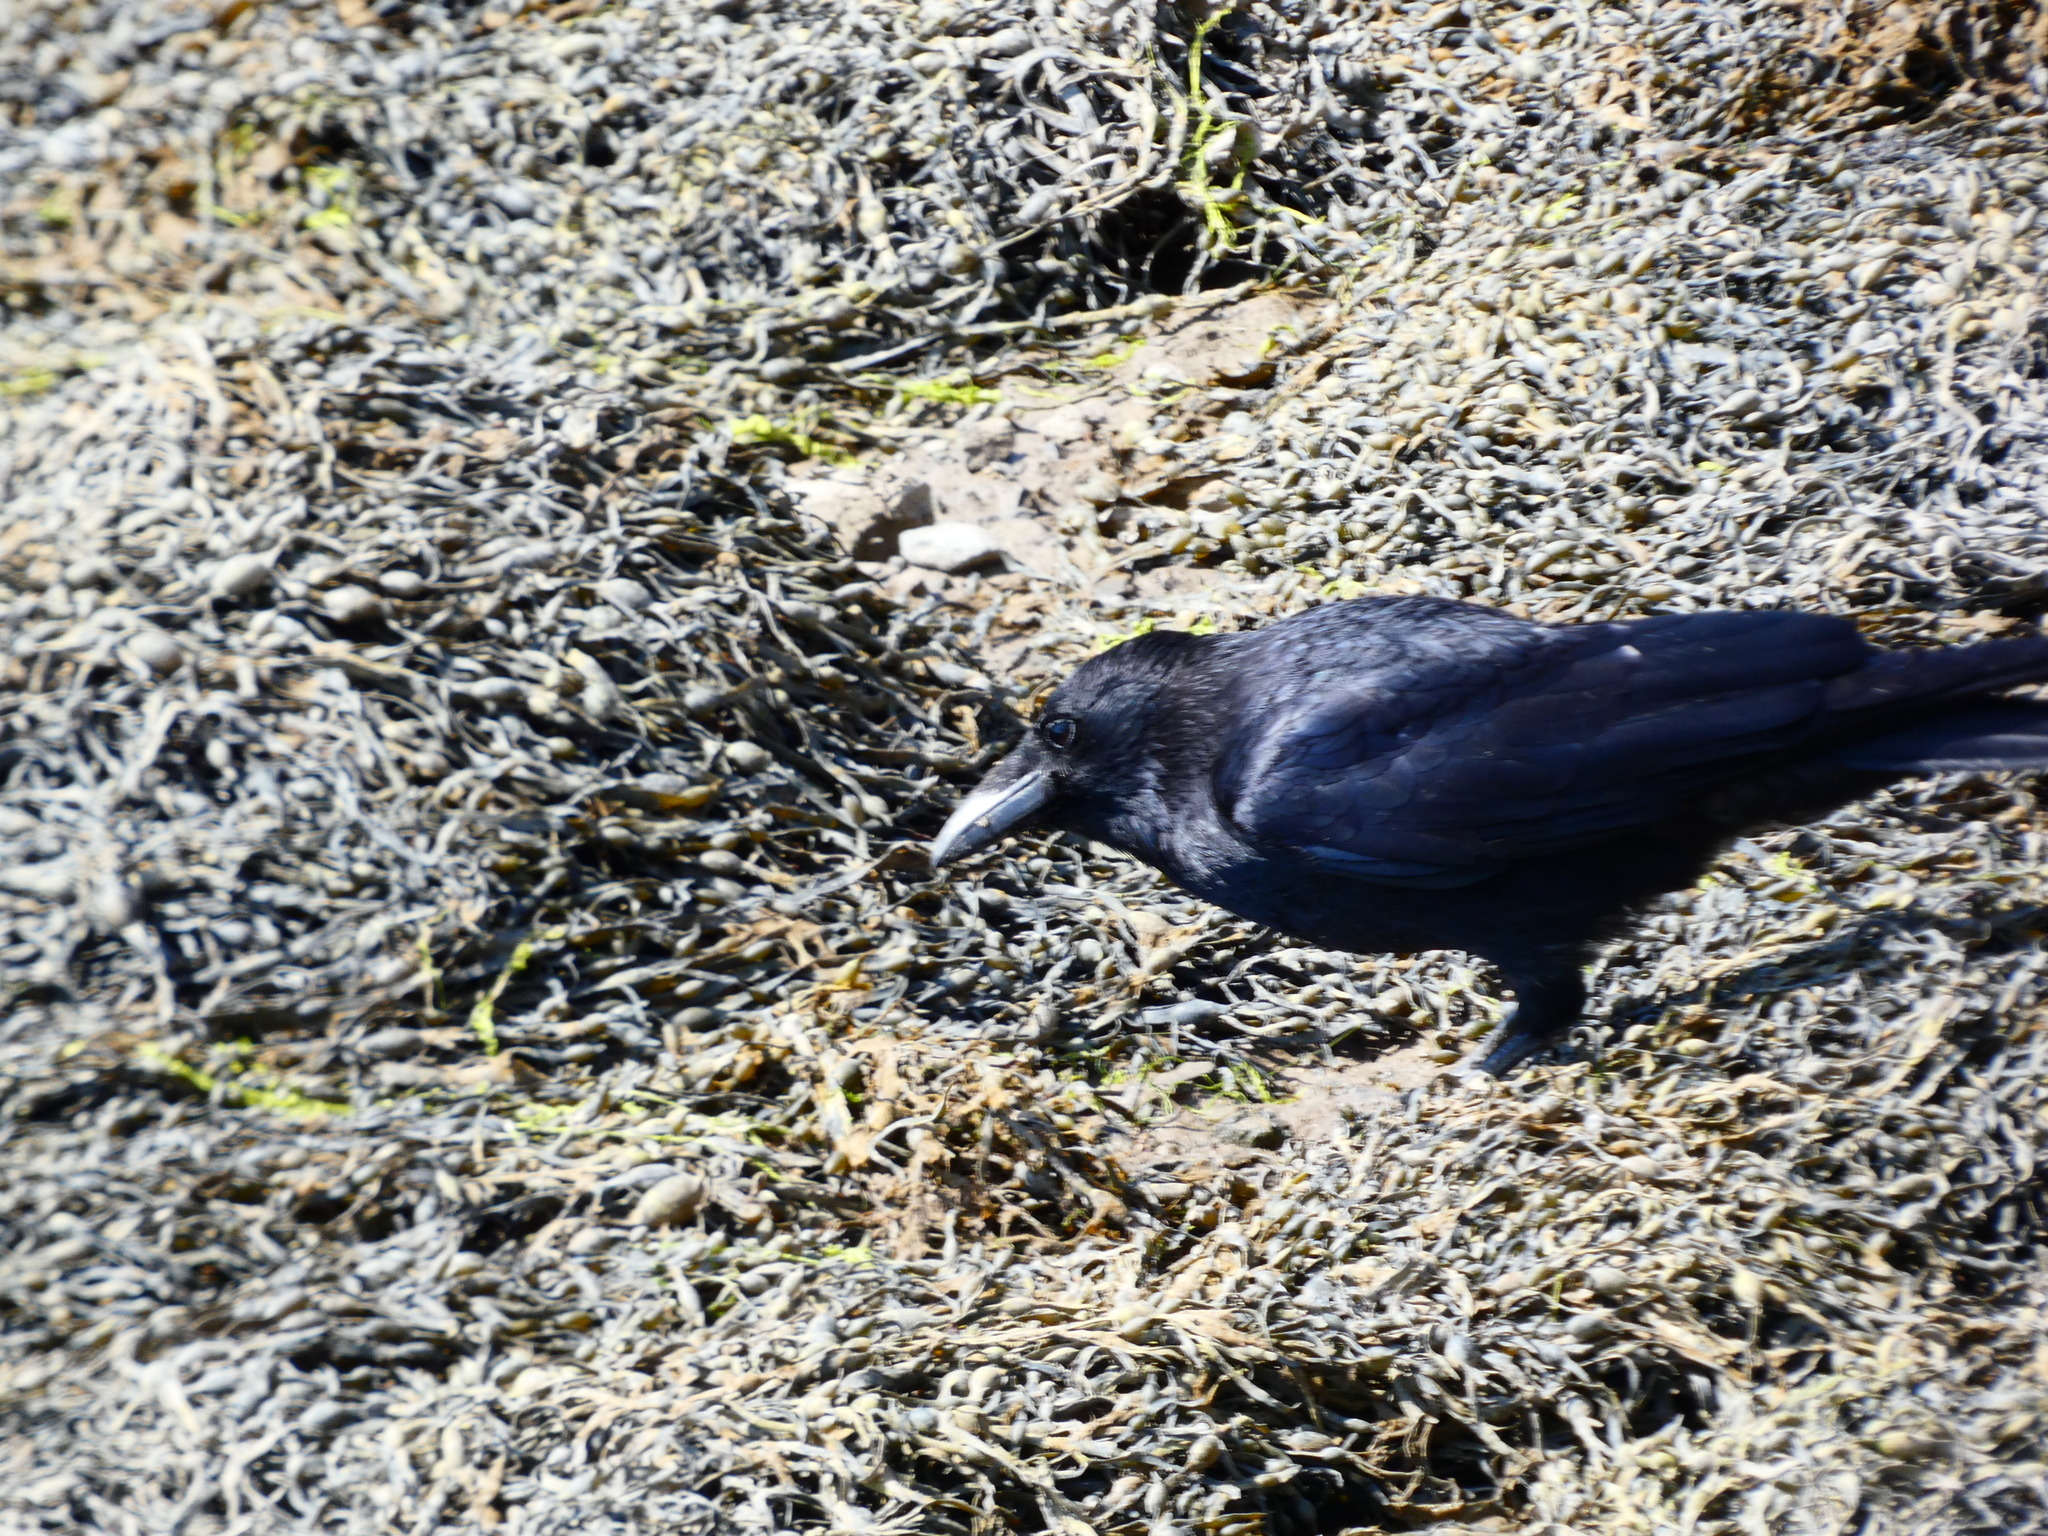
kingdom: Animalia
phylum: Chordata
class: Aves
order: Passeriformes
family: Corvidae
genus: Corvus
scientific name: Corvus corone
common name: Carrion crow
